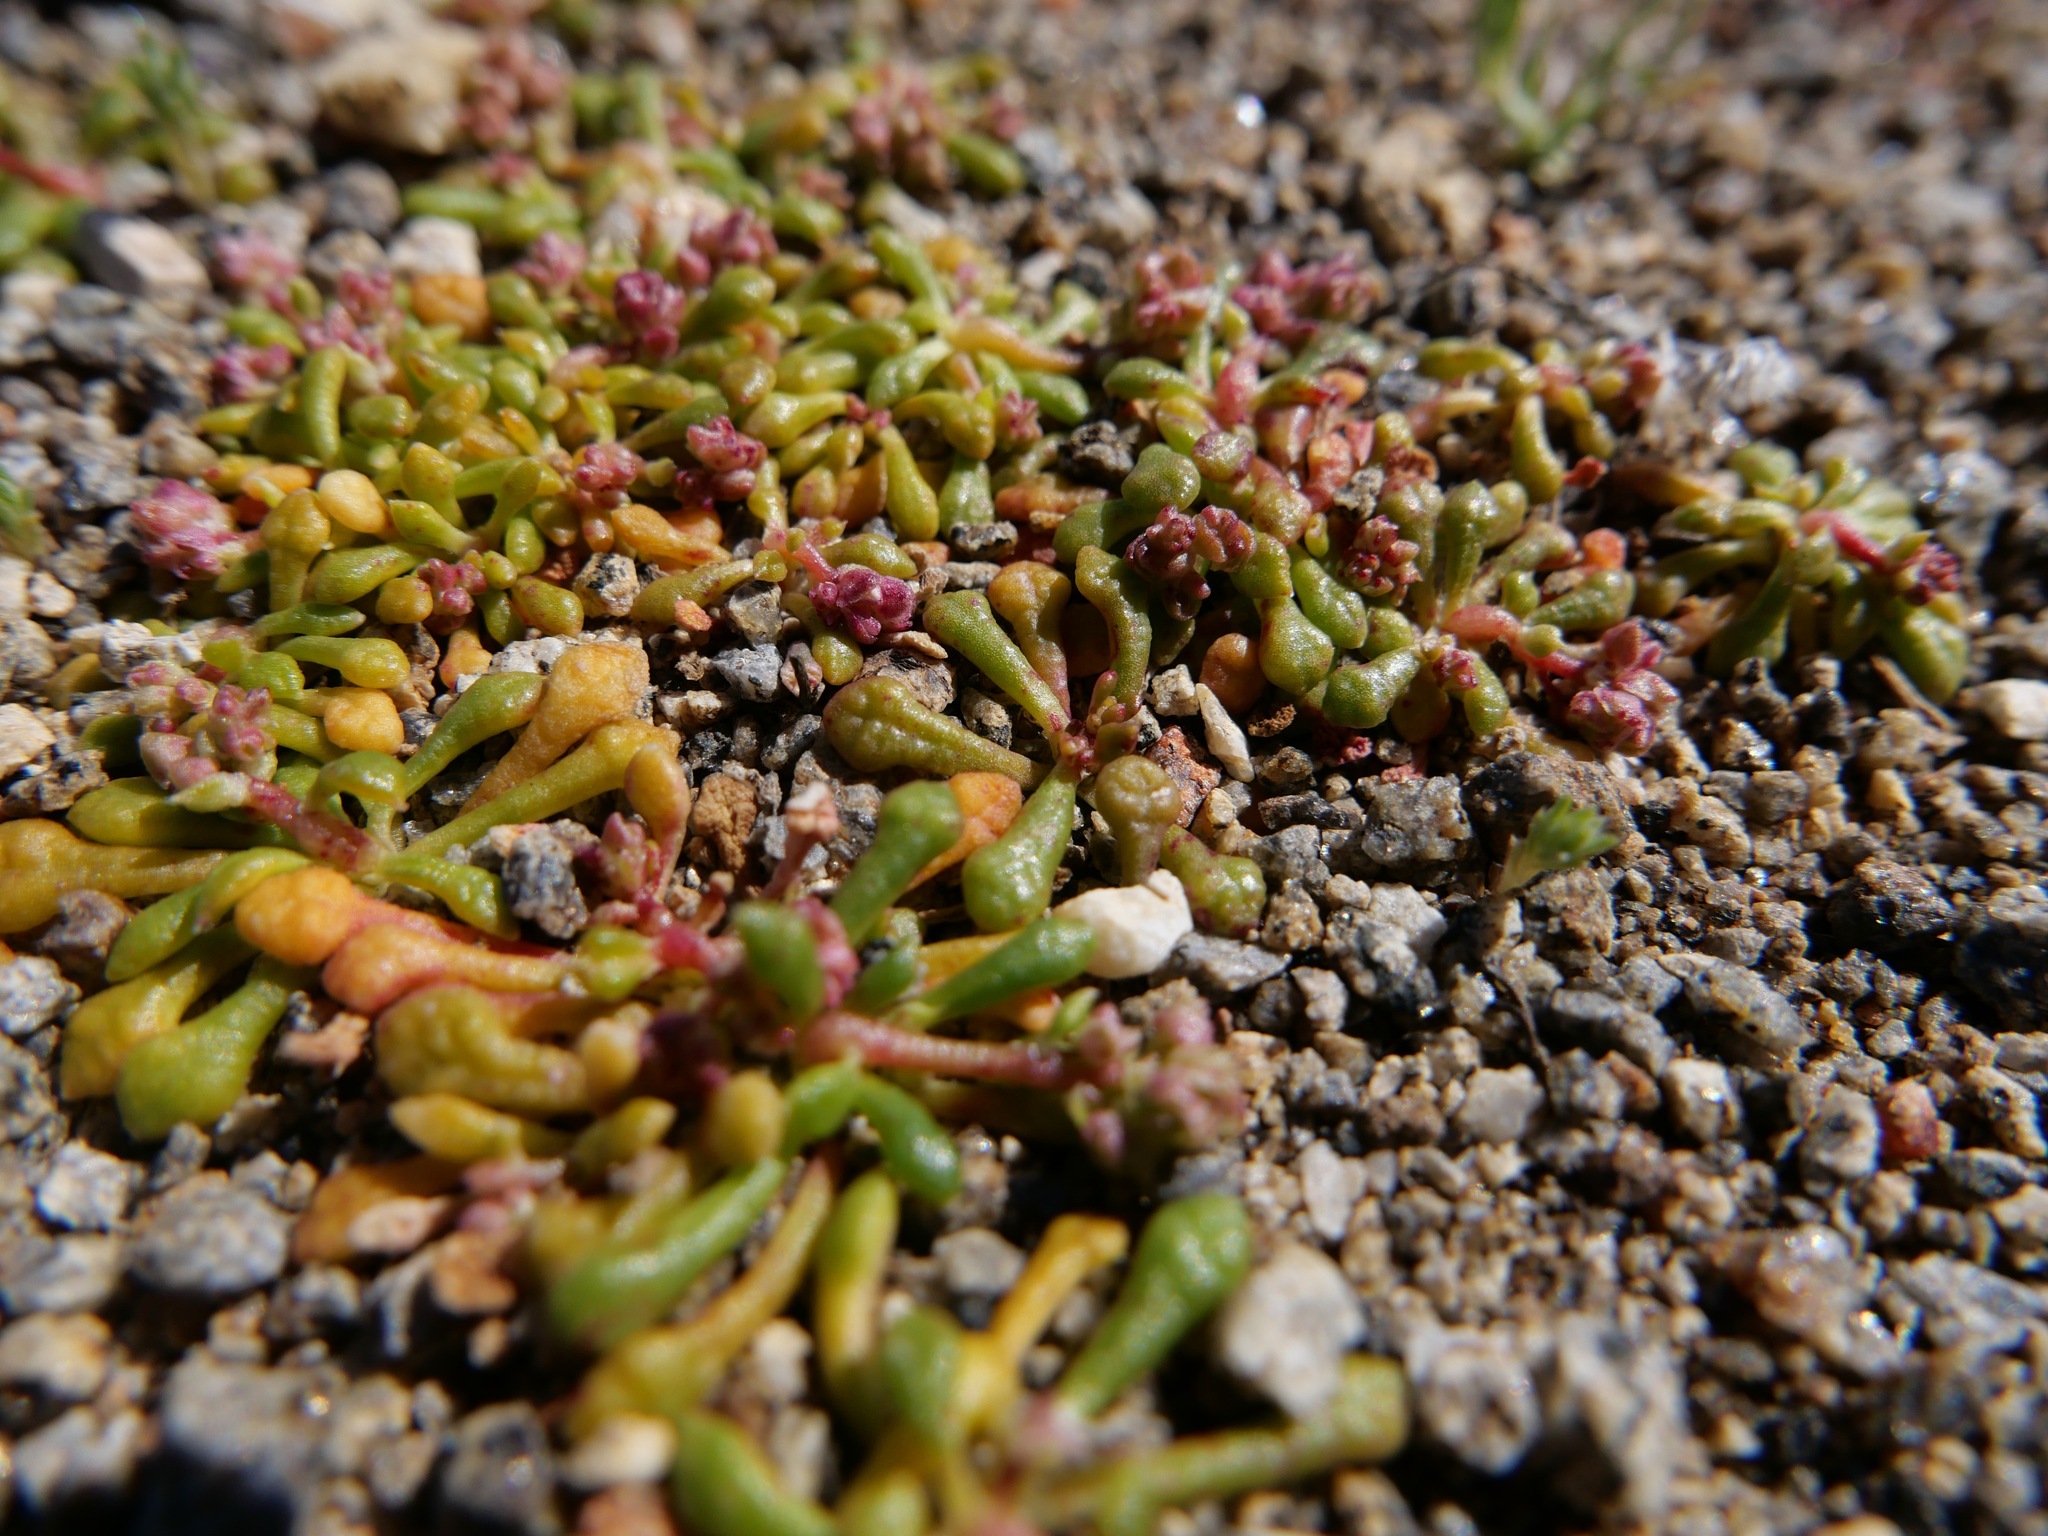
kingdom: Plantae
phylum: Tracheophyta
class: Magnoliopsida
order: Caryophyllales
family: Montiaceae
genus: Calyptridium
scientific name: Calyptridium monandrum
